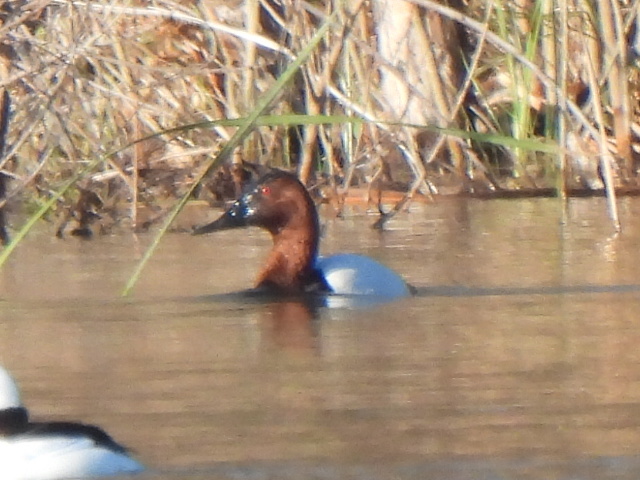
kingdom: Animalia
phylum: Chordata
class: Aves
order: Anseriformes
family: Anatidae
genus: Aythya
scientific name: Aythya valisineria
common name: Canvasback
